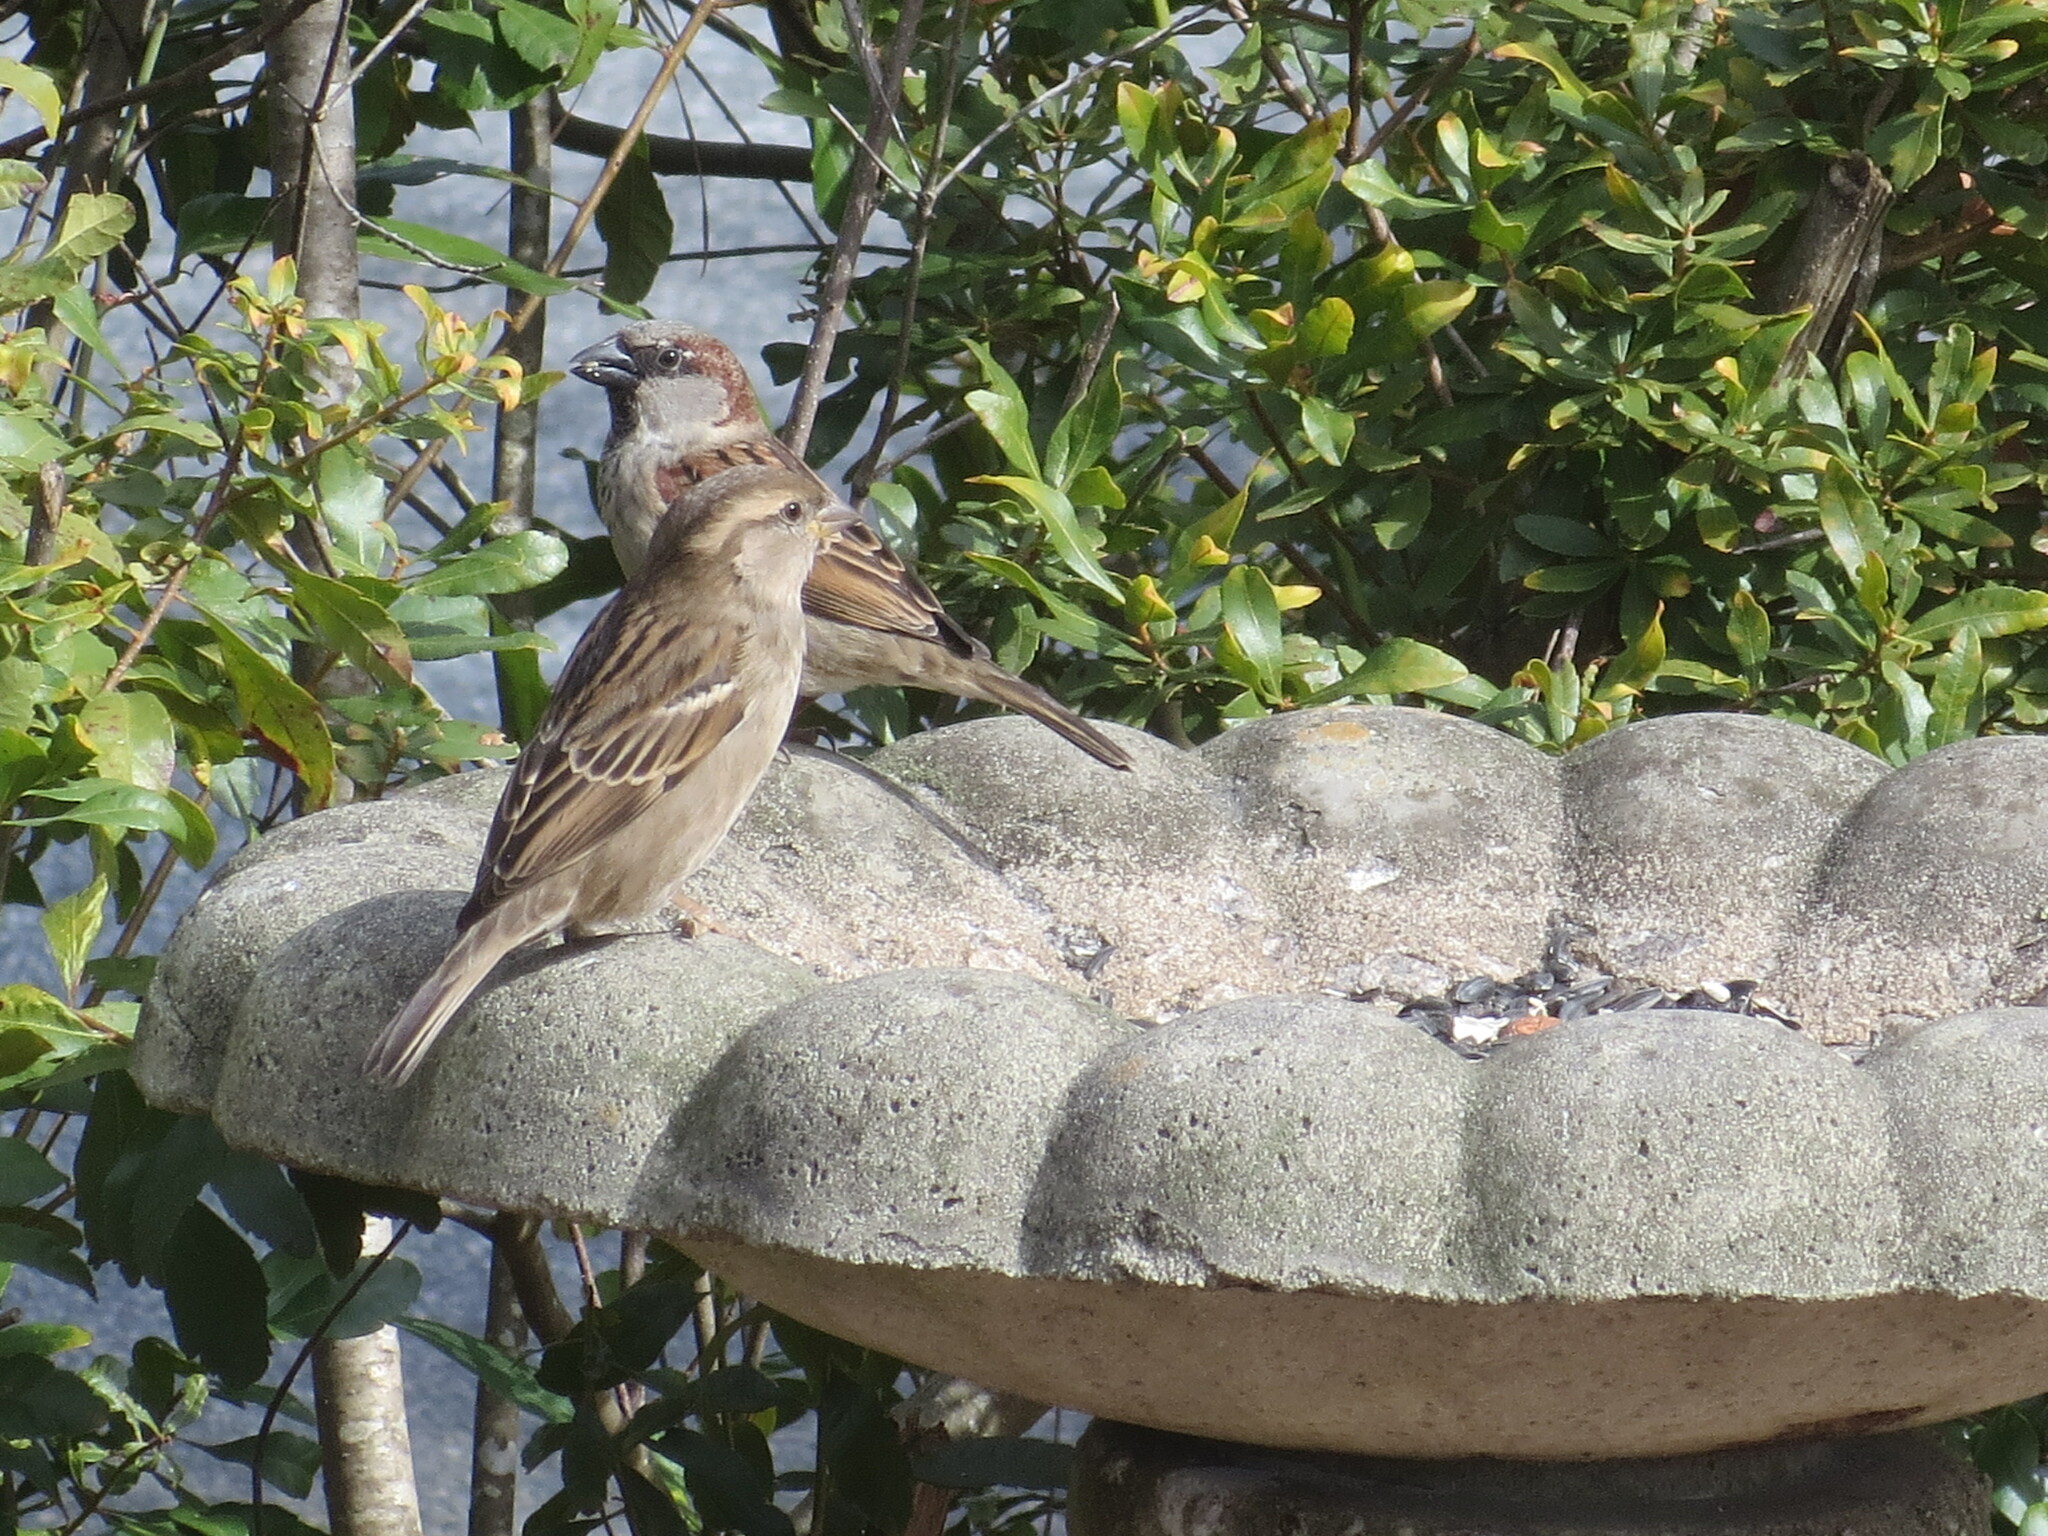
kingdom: Animalia
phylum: Chordata
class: Aves
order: Passeriformes
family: Passeridae
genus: Passer
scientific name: Passer domesticus
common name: House sparrow
